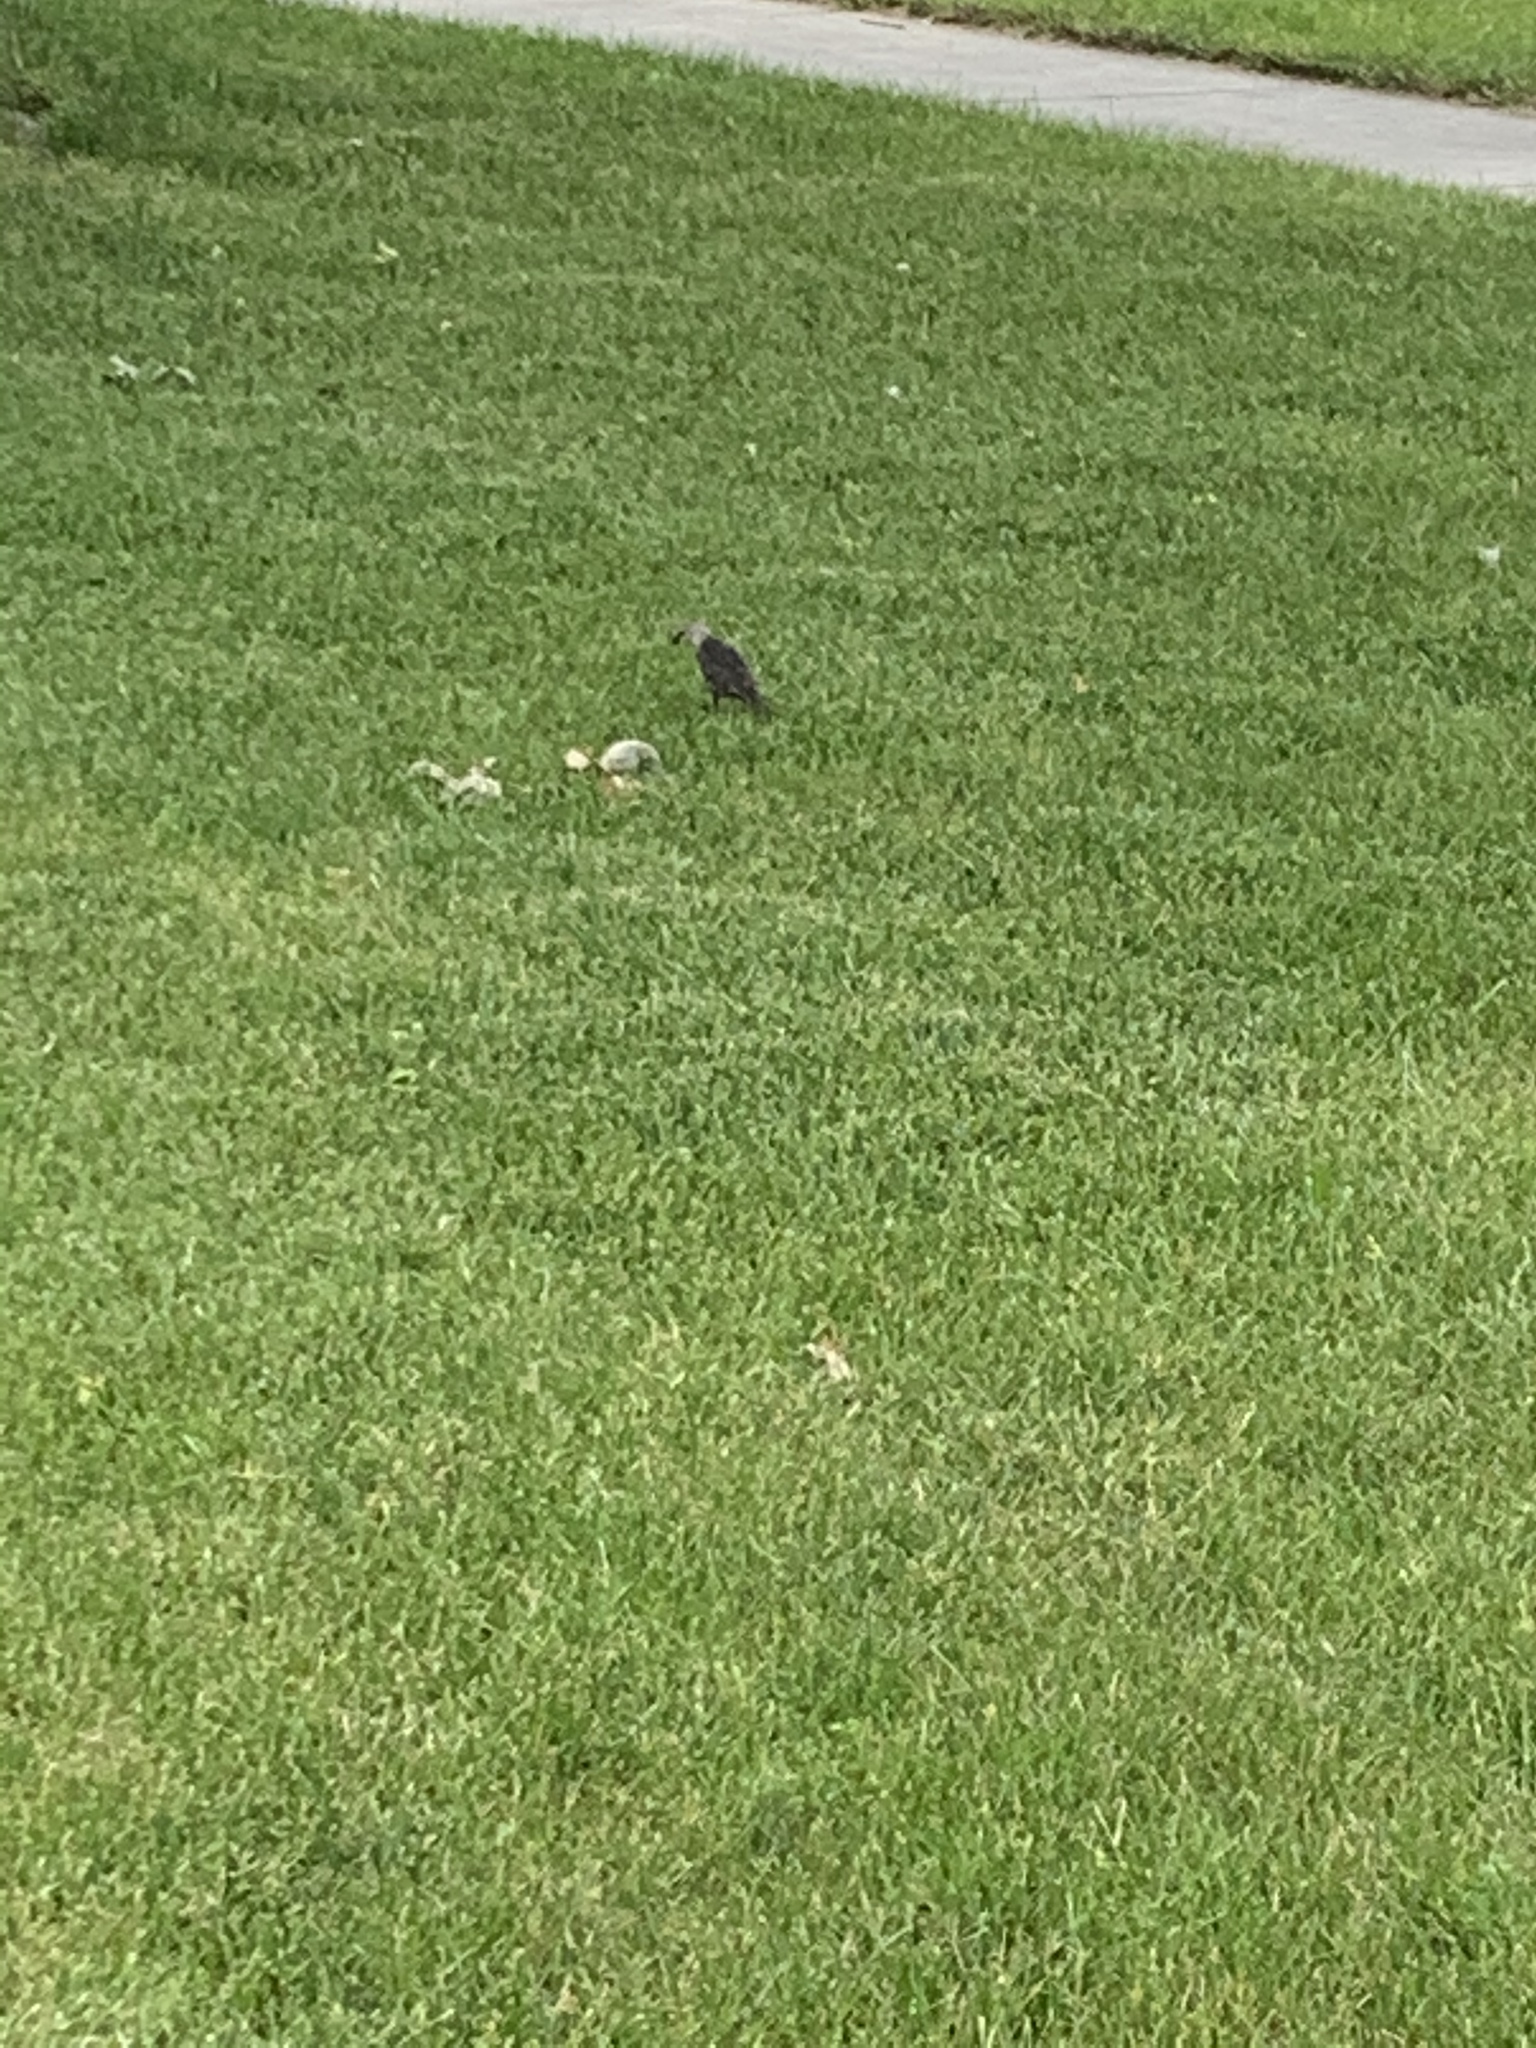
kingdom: Animalia
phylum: Chordata
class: Aves
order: Passeriformes
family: Icteridae
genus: Molothrus
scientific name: Molothrus ater
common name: Brown-headed cowbird
